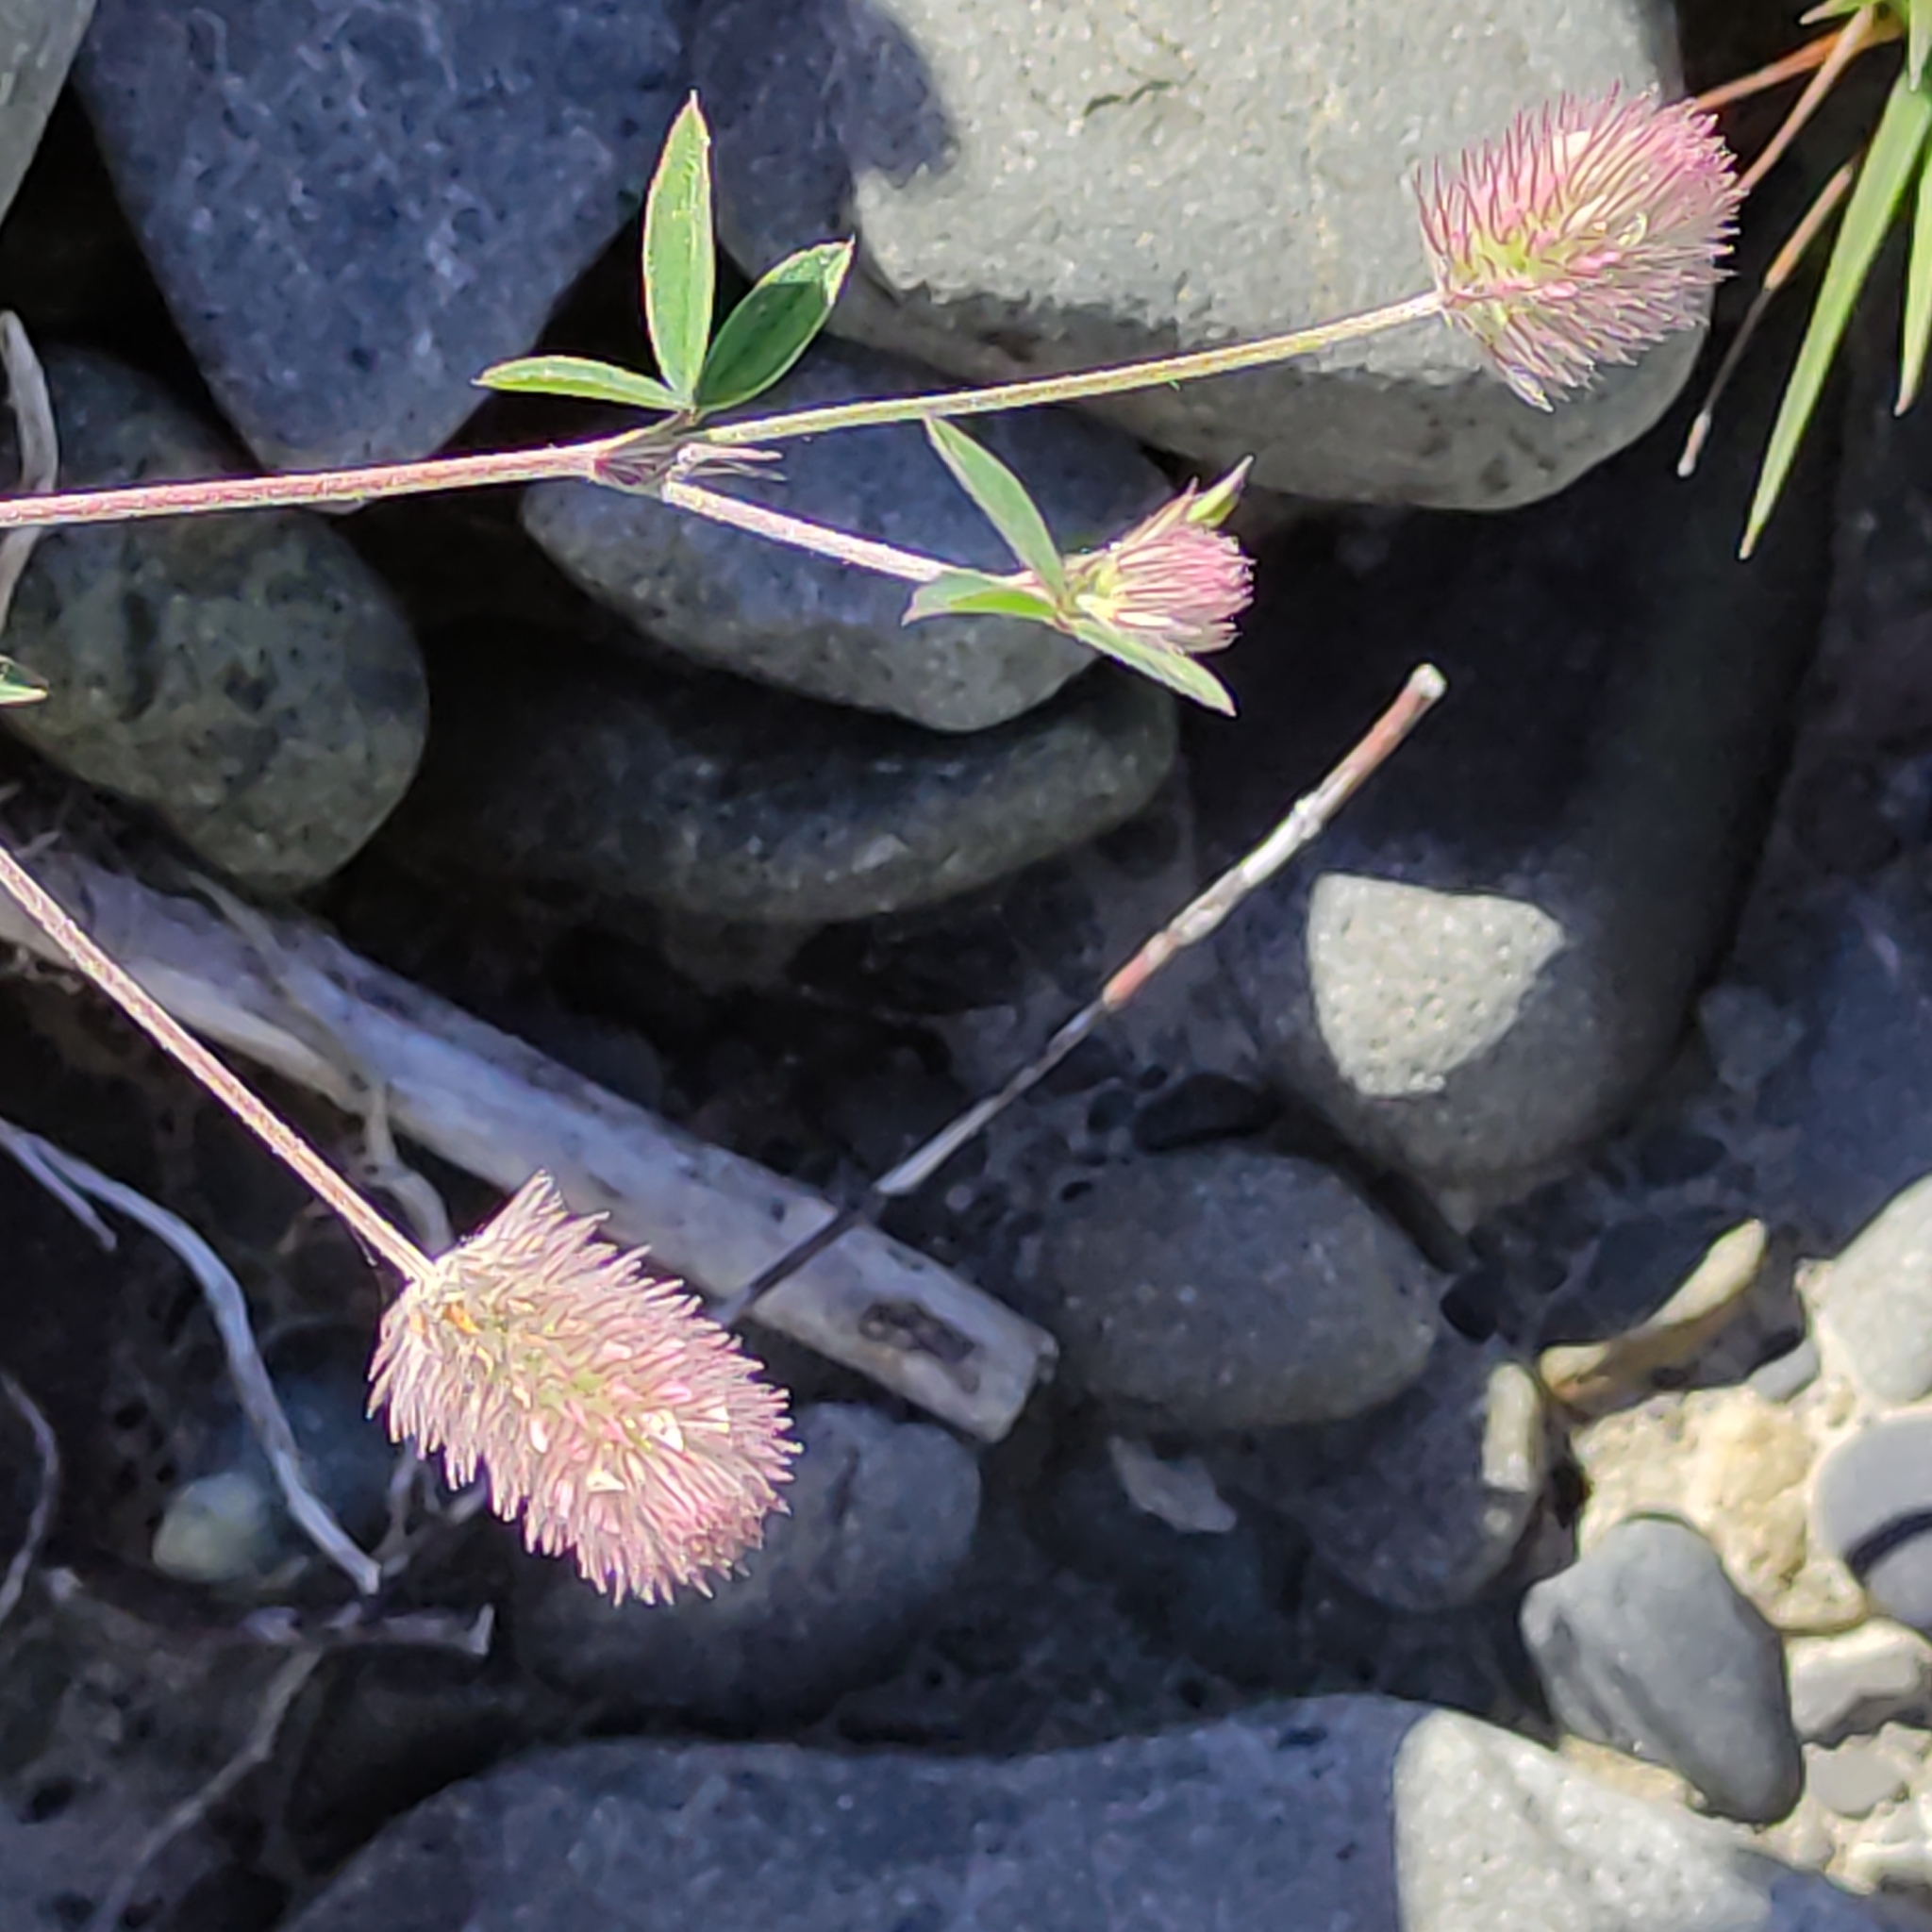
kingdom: Plantae
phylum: Tracheophyta
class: Magnoliopsida
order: Fabales
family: Fabaceae
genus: Trifolium
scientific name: Trifolium arvense
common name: Hare's-foot clover
